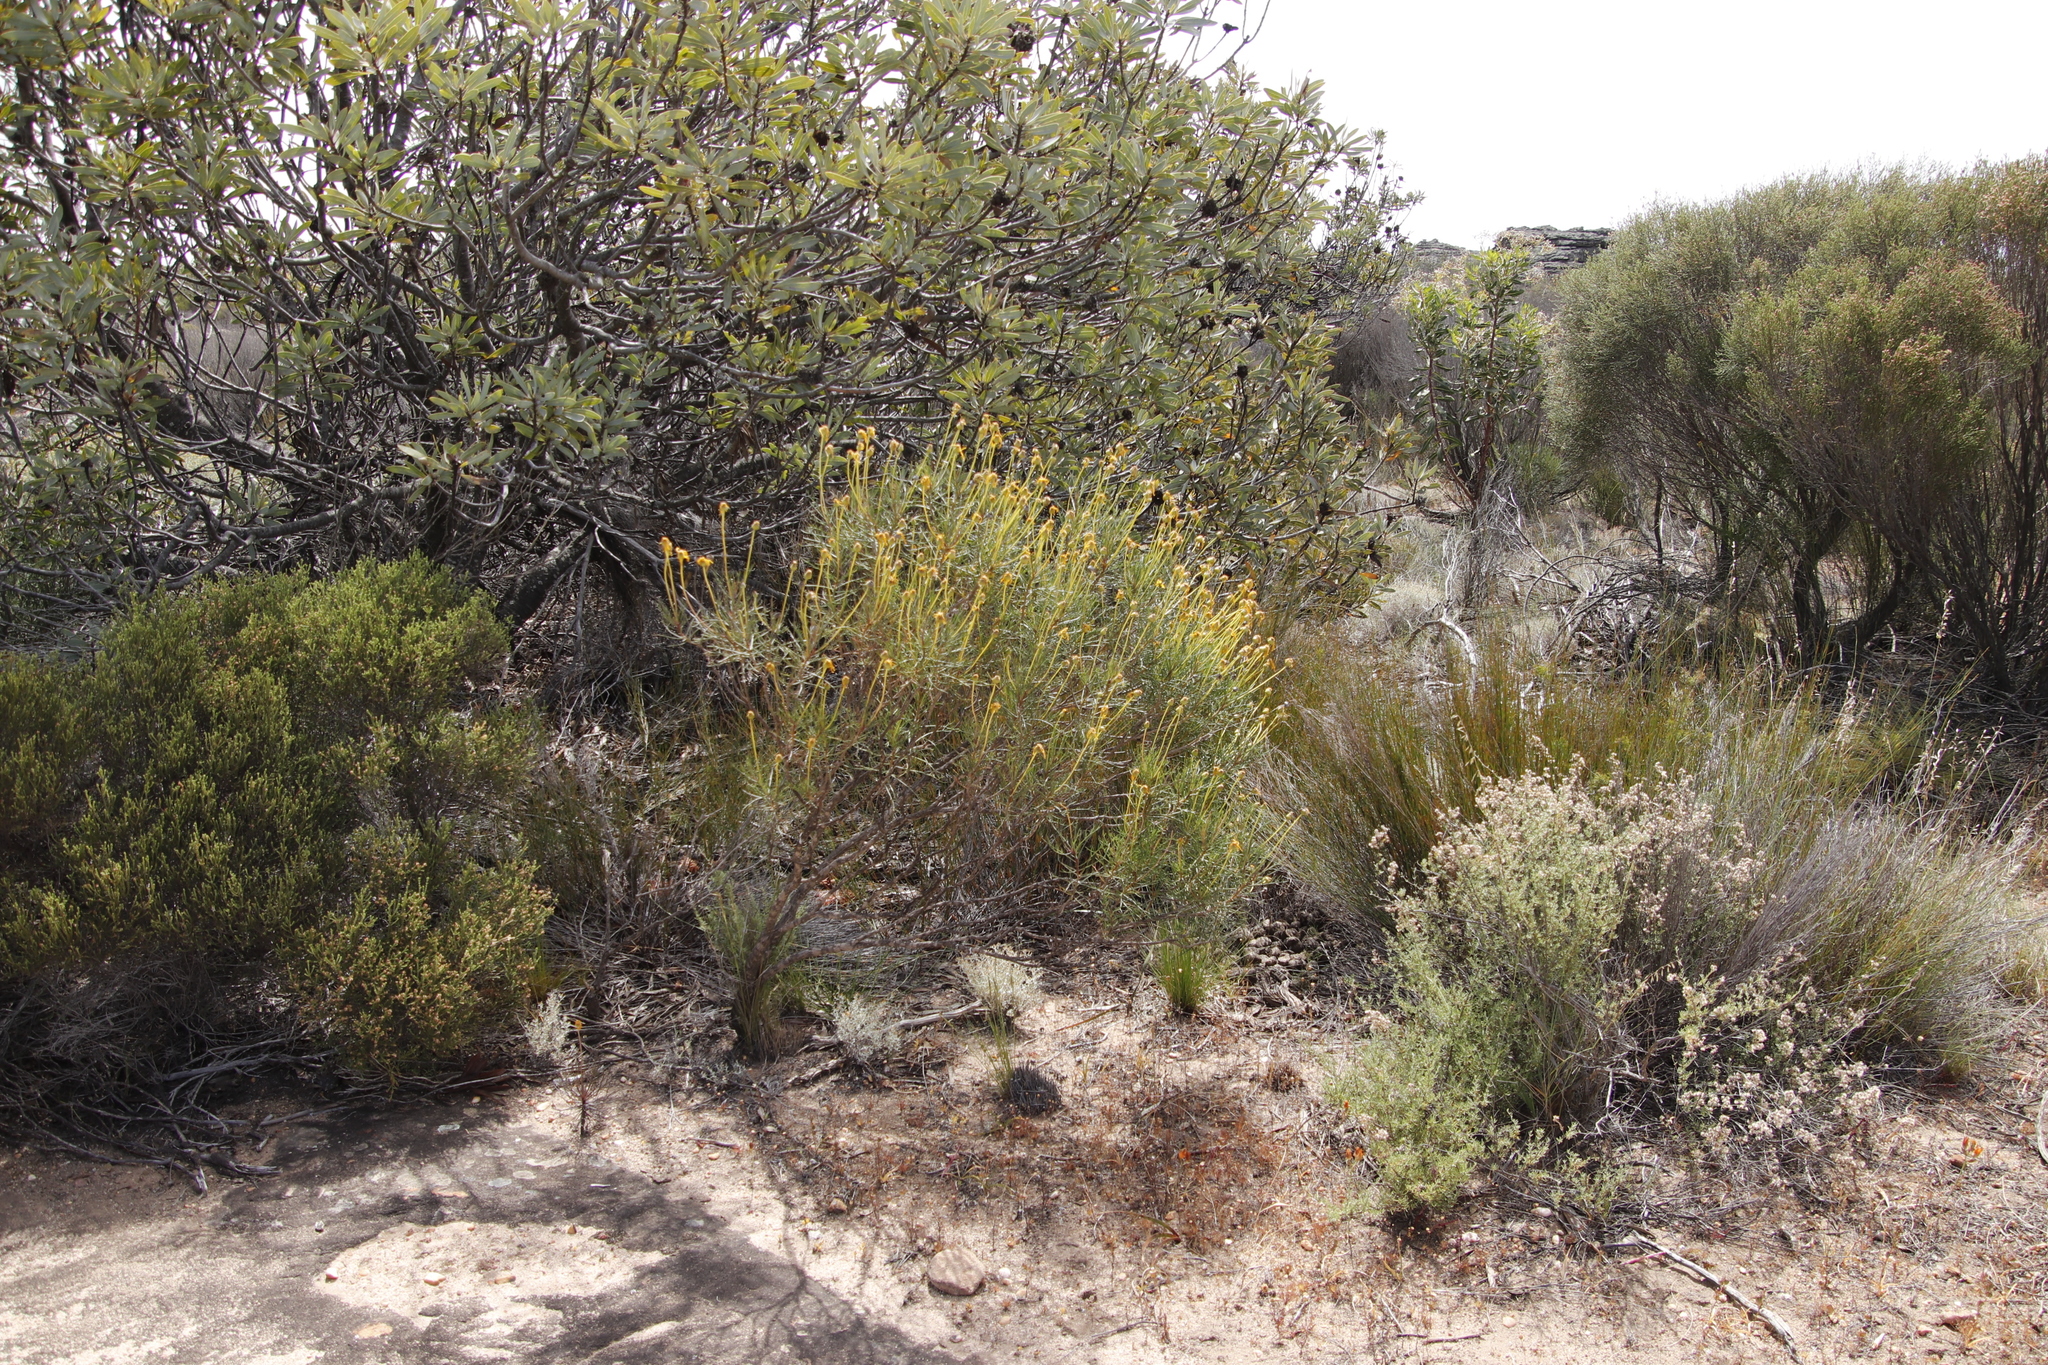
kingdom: Plantae
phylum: Tracheophyta
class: Magnoliopsida
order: Asterales
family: Asteraceae
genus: Euryops
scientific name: Euryops speciosissimus
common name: Clanwilliam daisy
